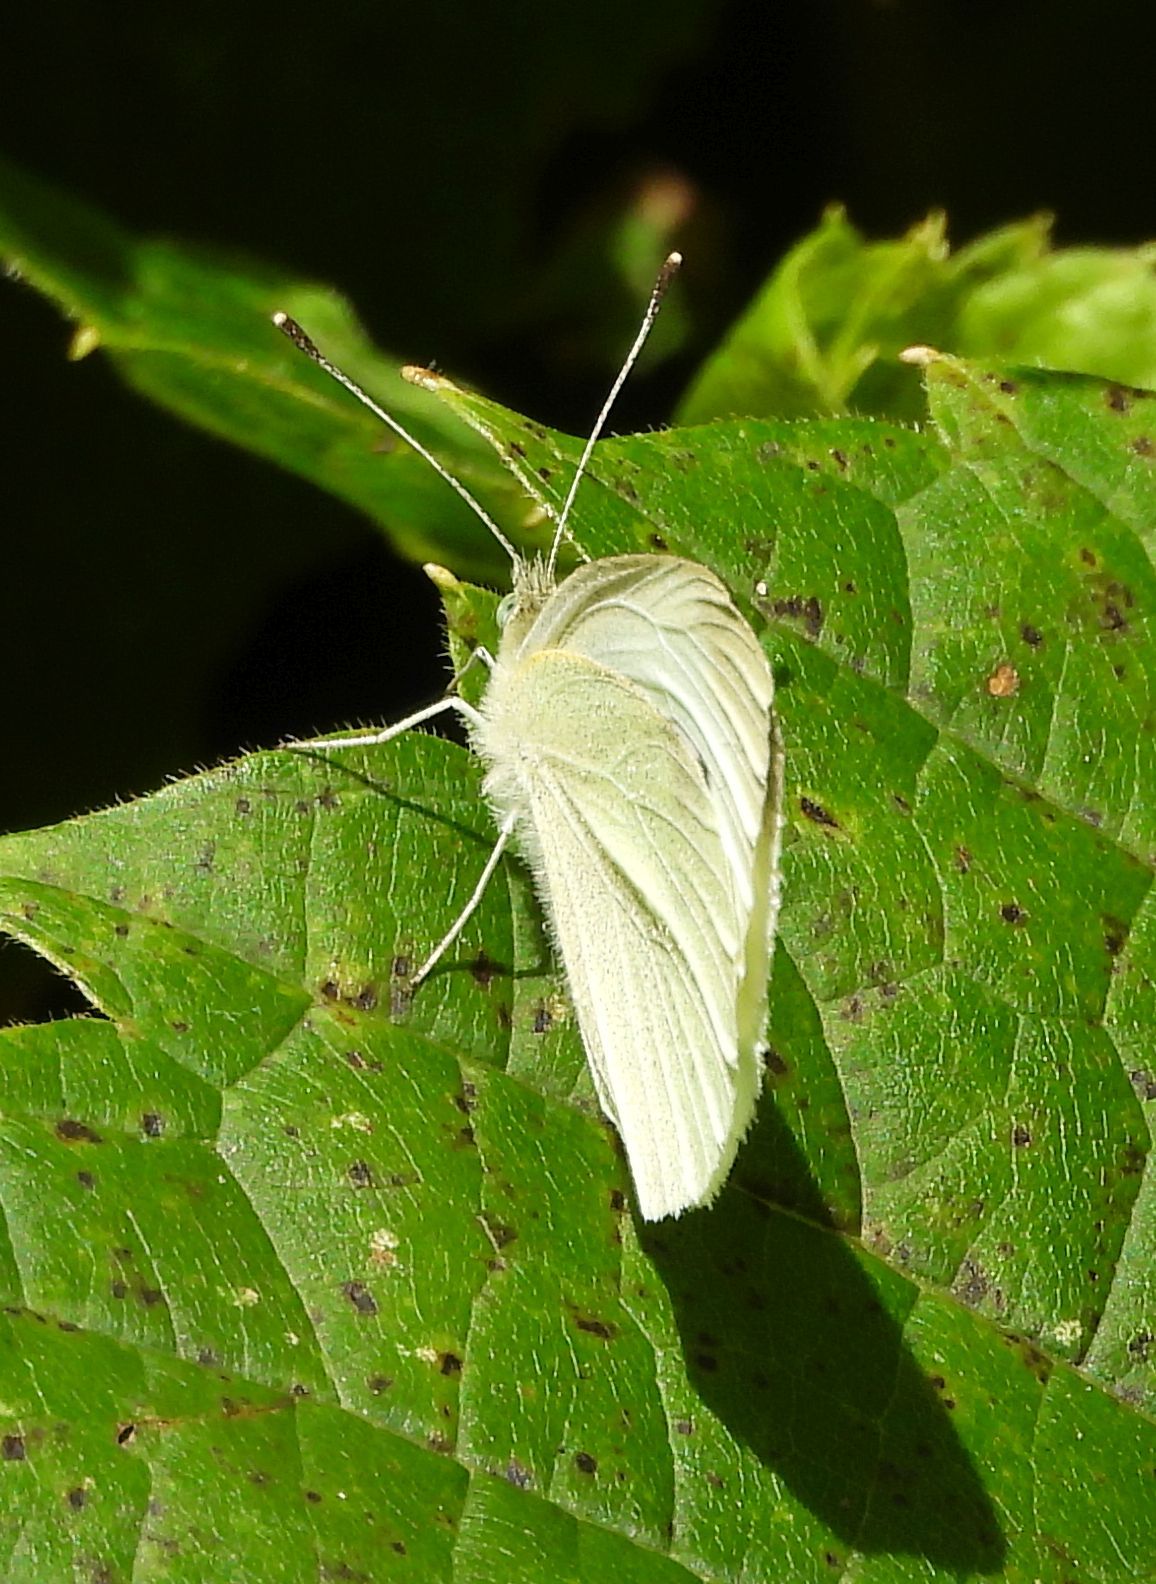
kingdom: Animalia
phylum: Arthropoda
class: Insecta
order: Lepidoptera
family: Pieridae
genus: Pieris
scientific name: Pieris rapae
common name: Small white
